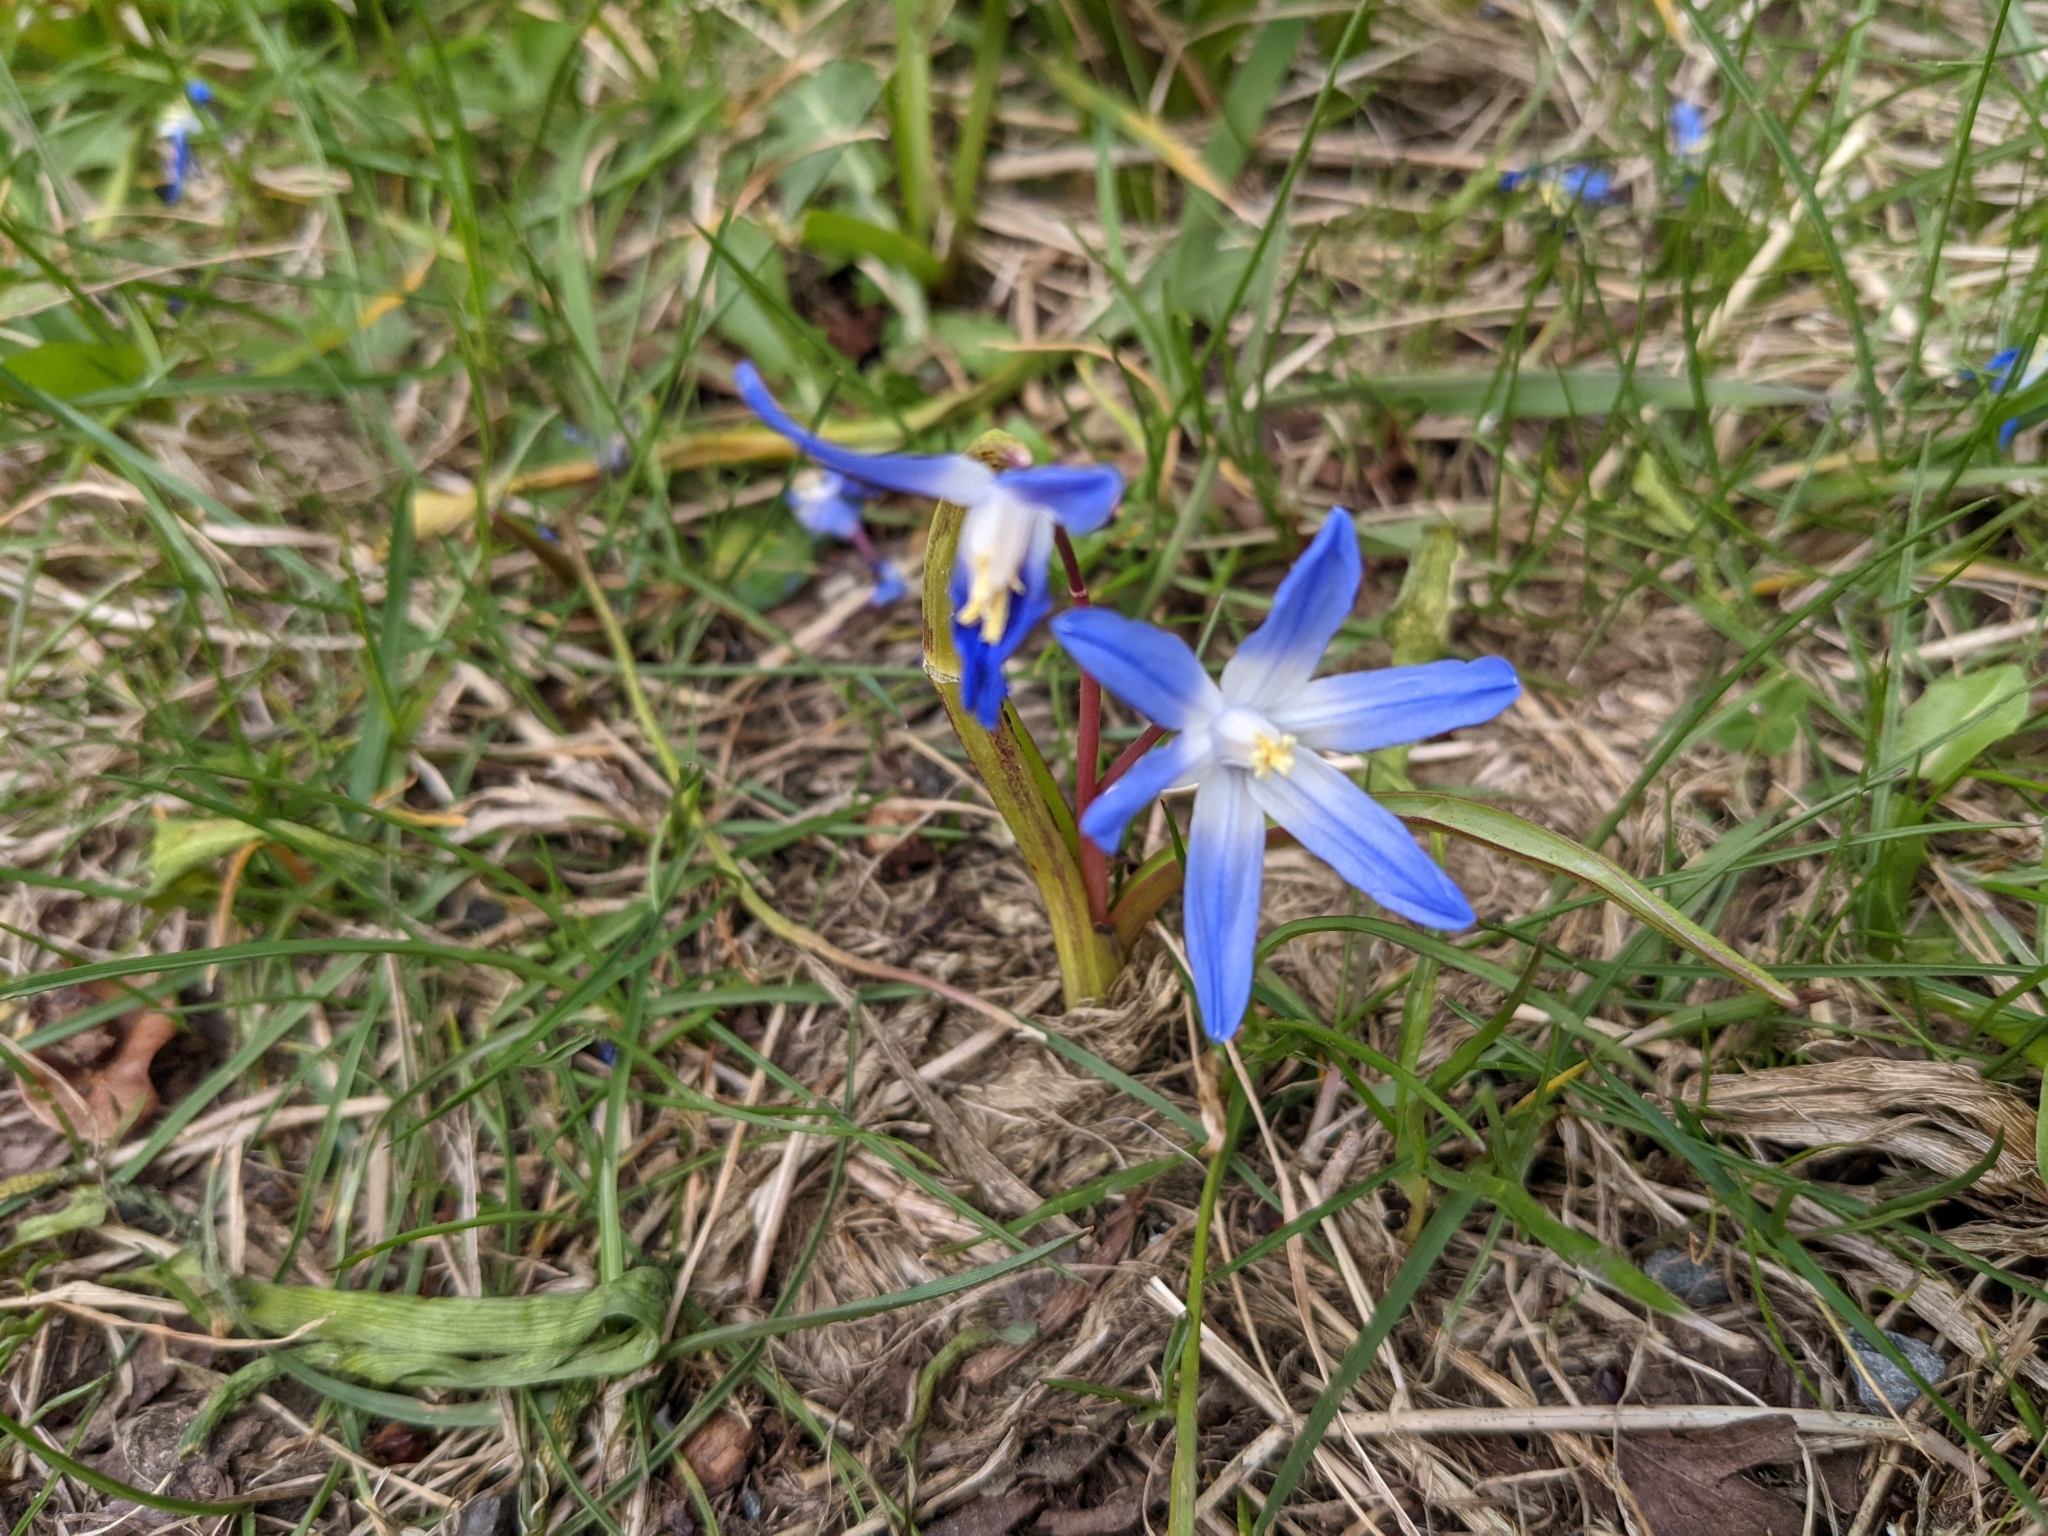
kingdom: Plantae
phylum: Tracheophyta
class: Liliopsida
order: Asparagales
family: Asparagaceae
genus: Scilla
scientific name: Scilla forbesii
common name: Glory-of-the-snow
